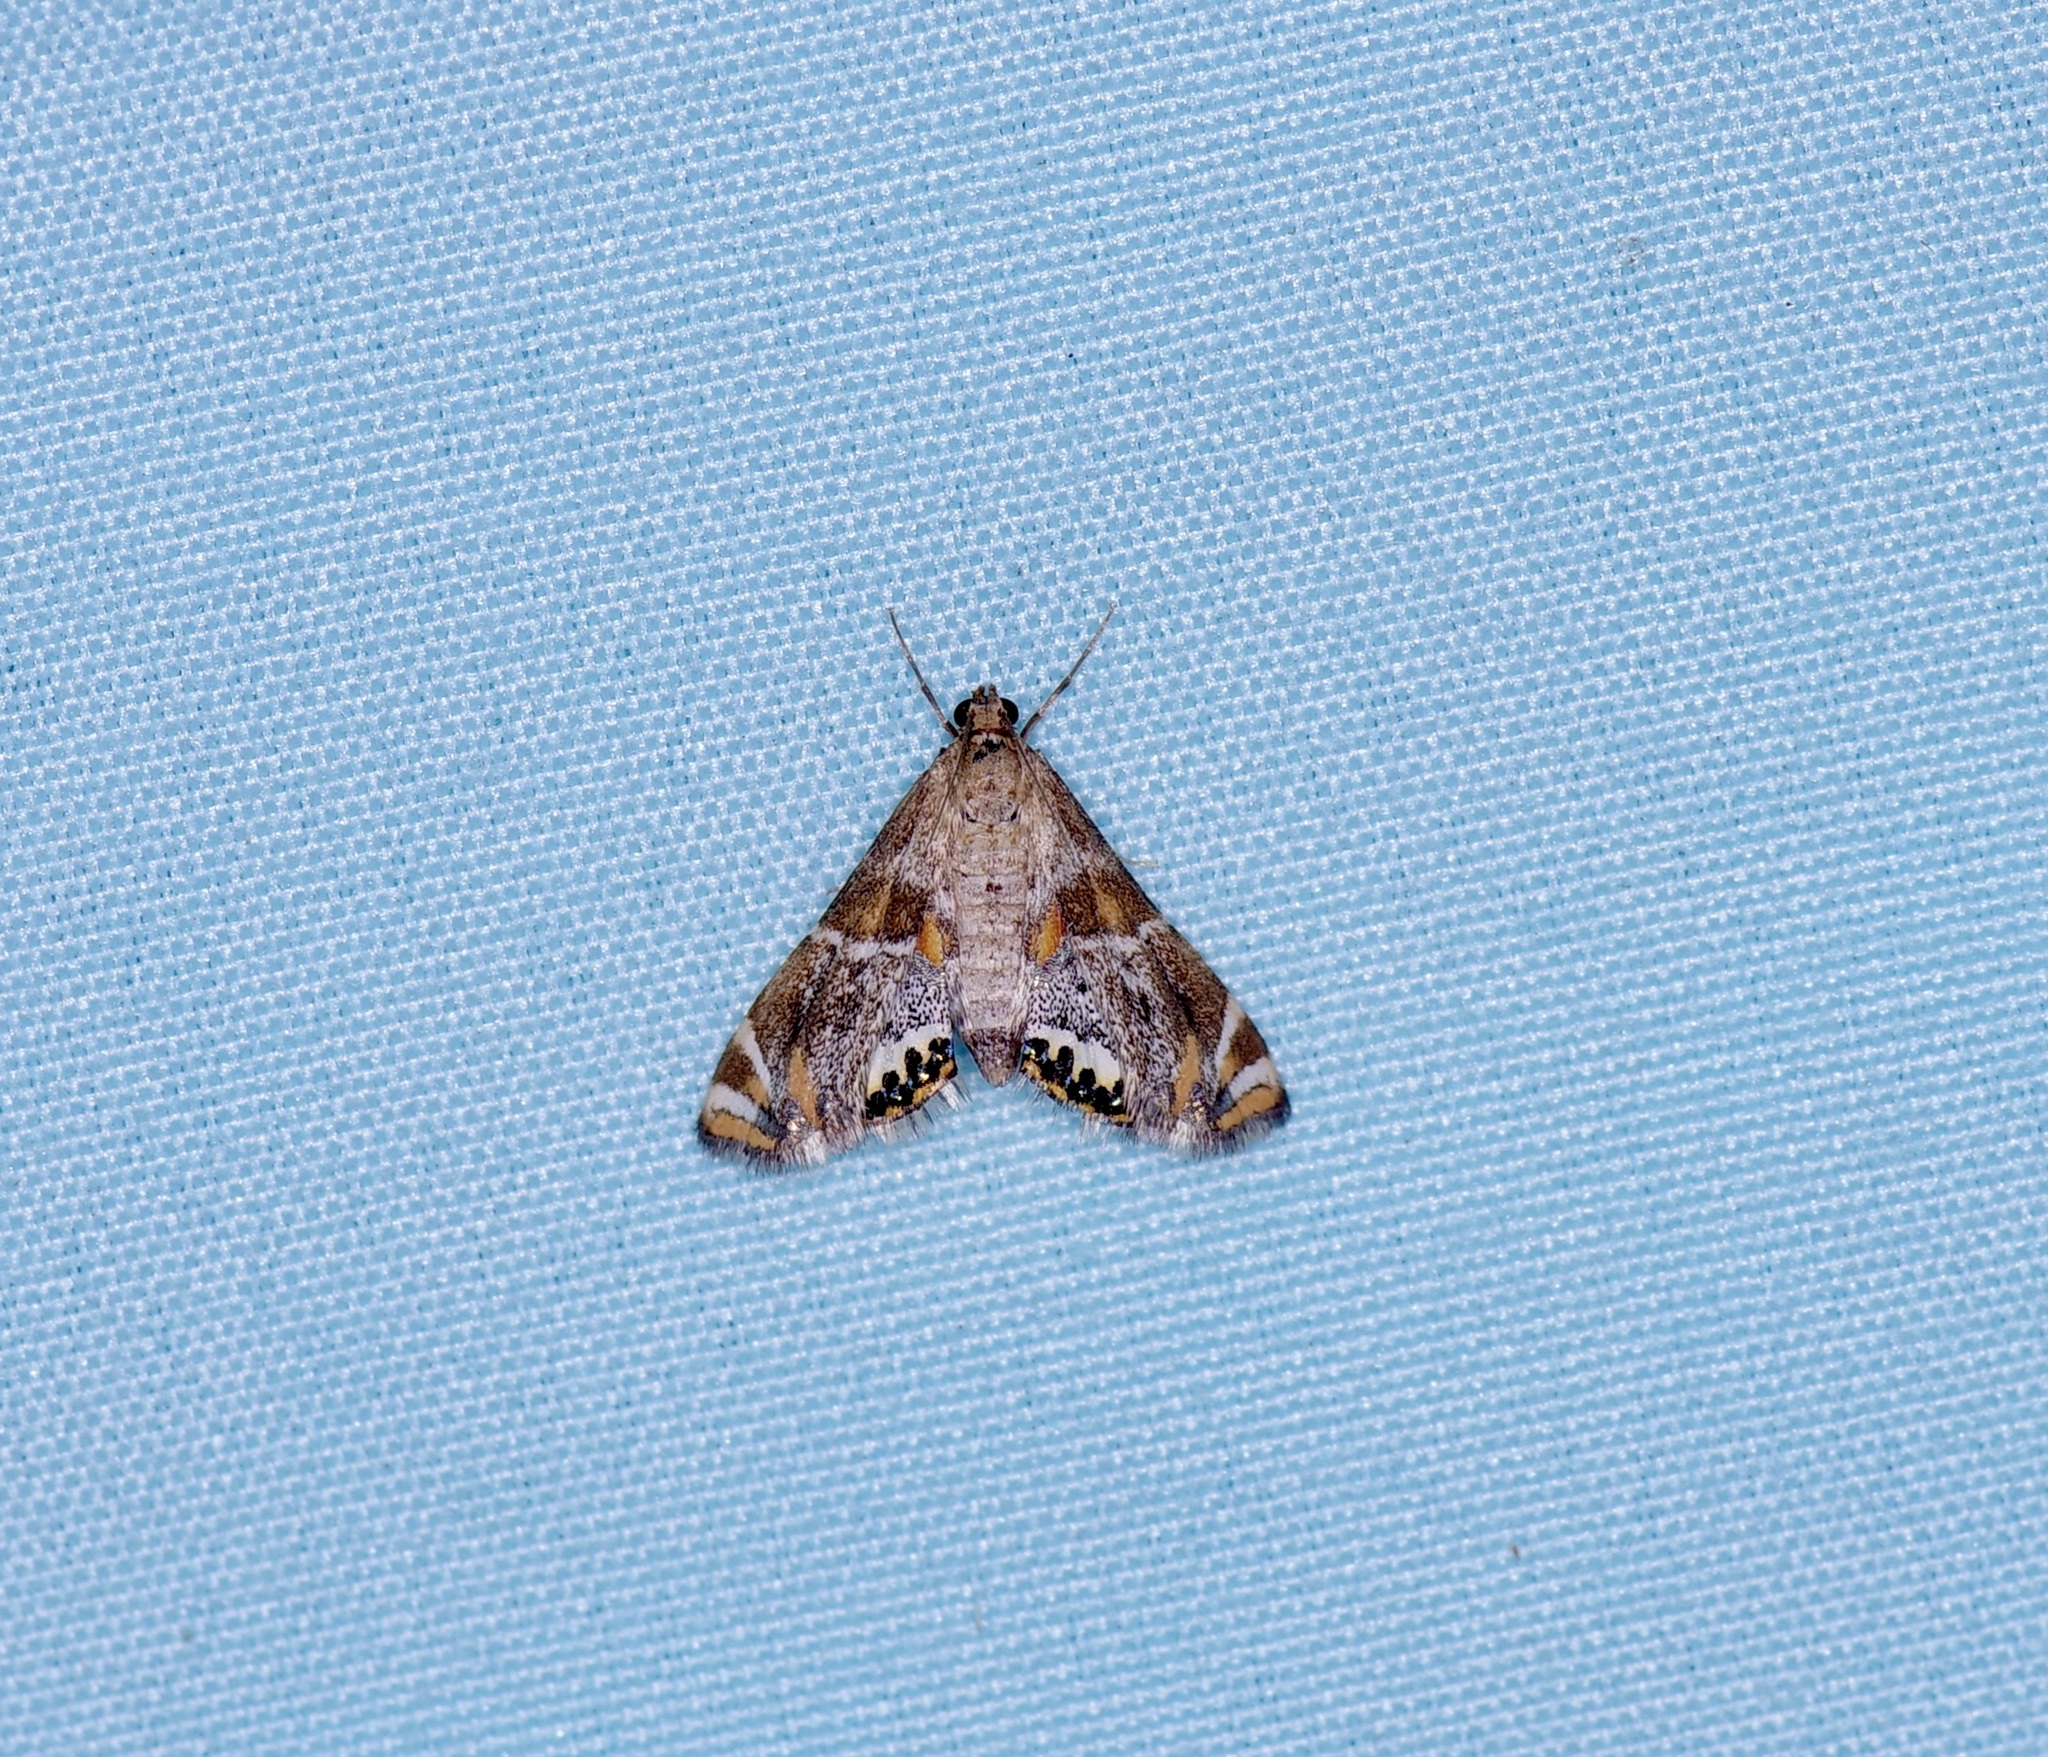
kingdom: Animalia
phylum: Arthropoda
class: Insecta
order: Lepidoptera
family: Crambidae
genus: Petrophila
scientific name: Petrophila jaliscalis
